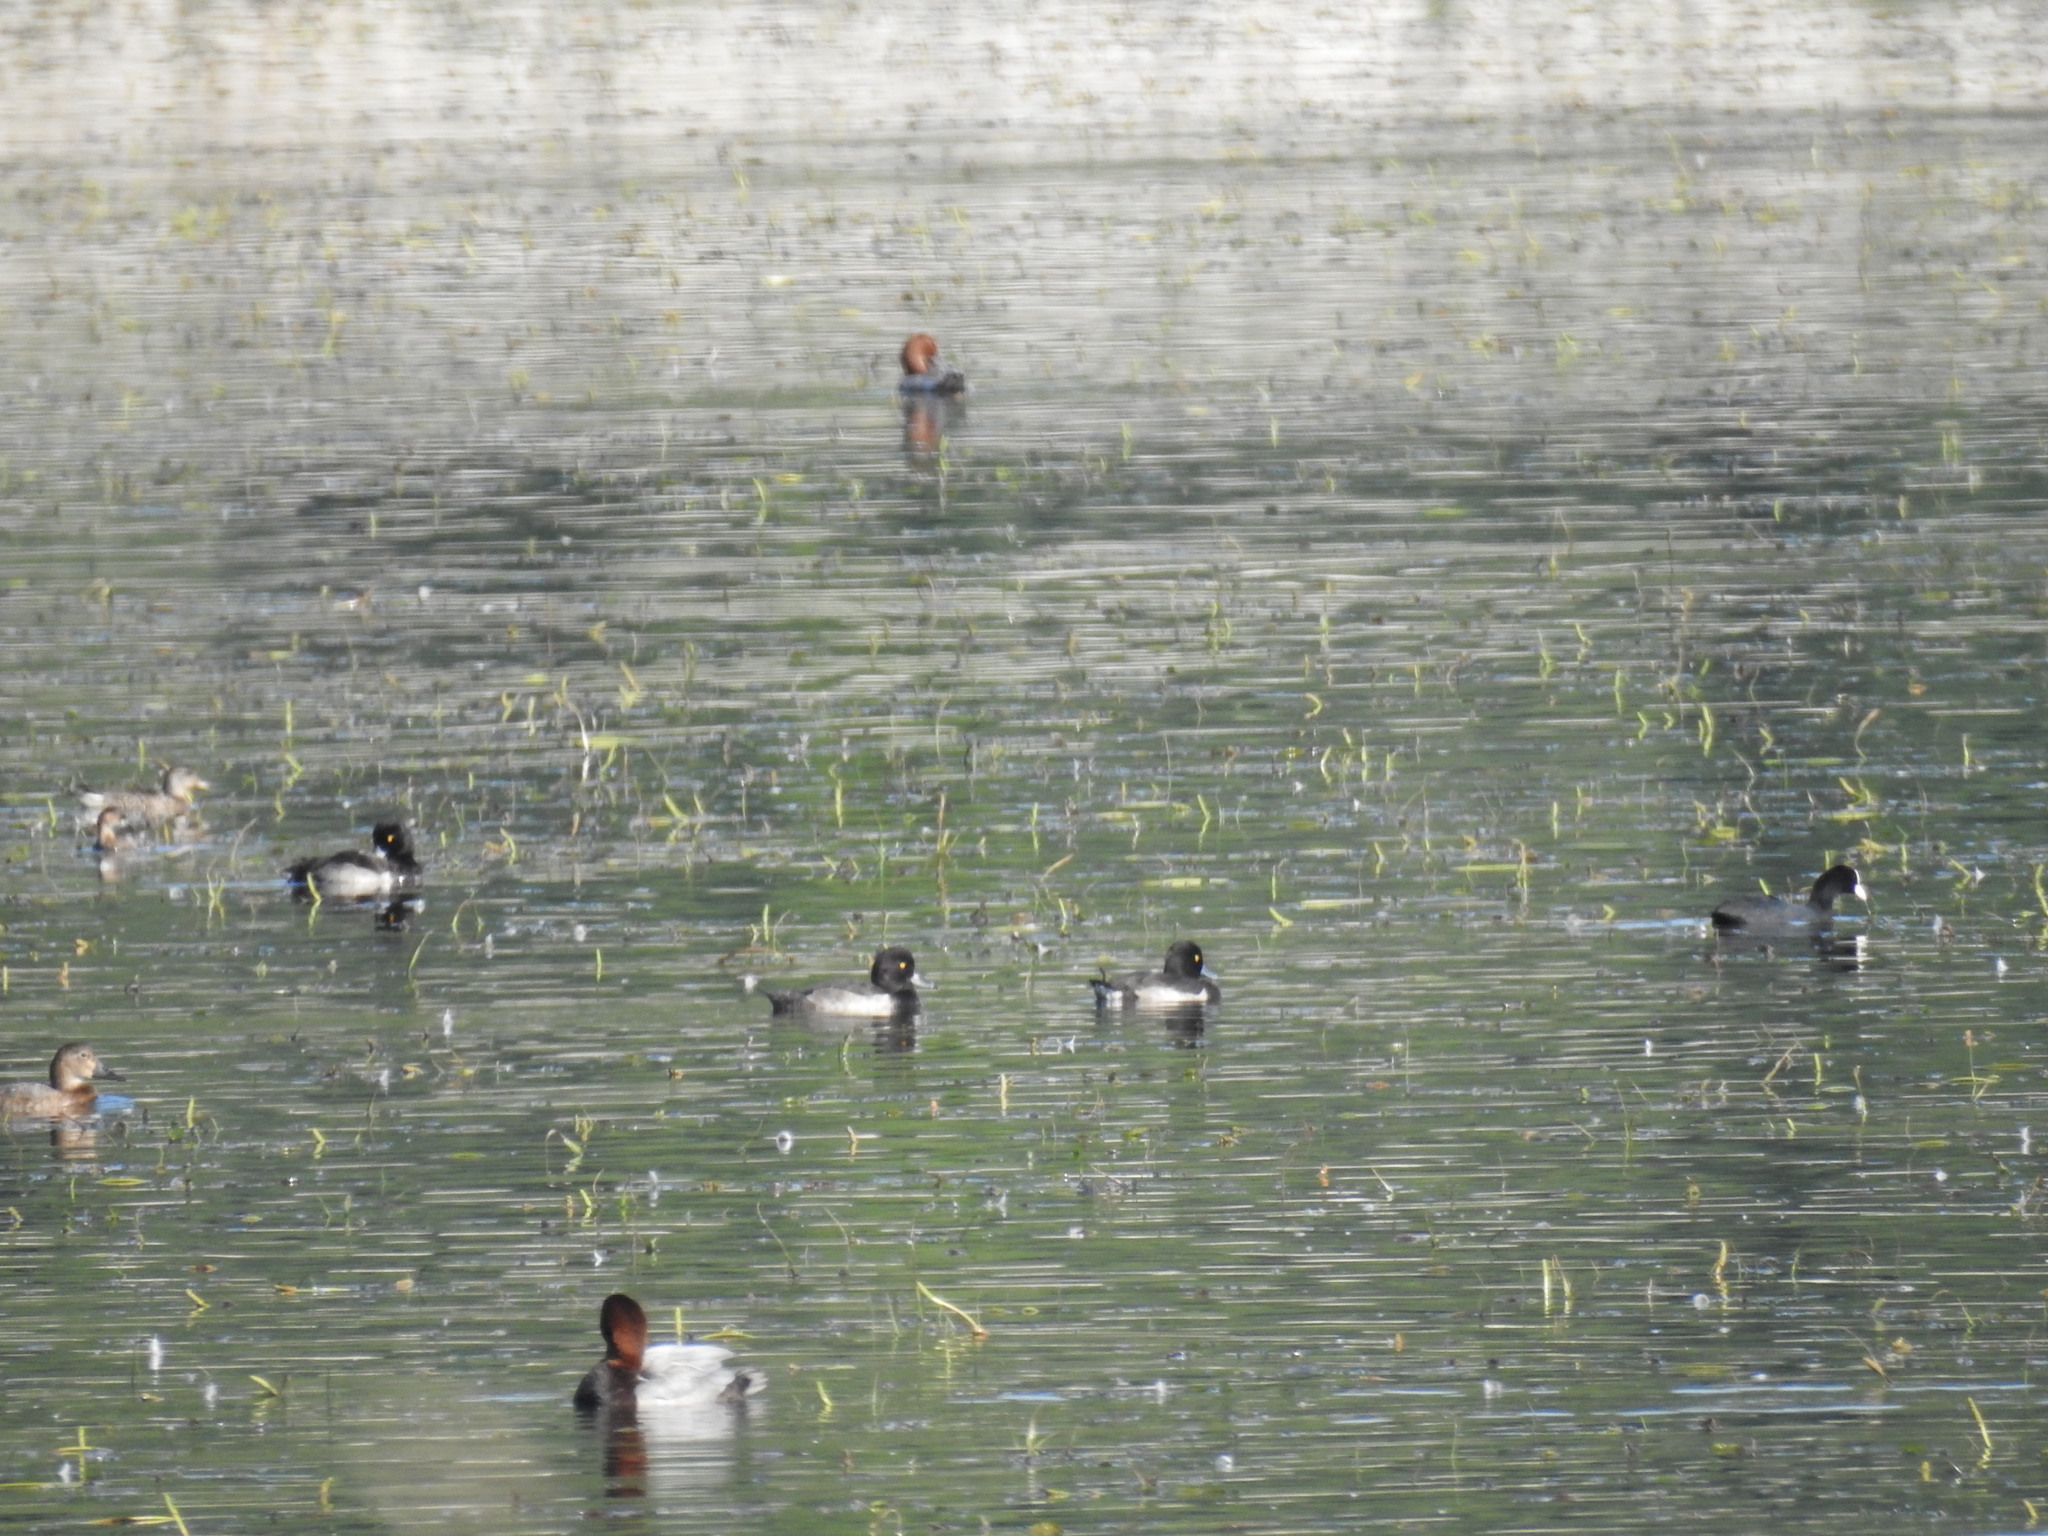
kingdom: Animalia
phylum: Chordata
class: Aves
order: Anseriformes
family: Anatidae
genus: Aythya
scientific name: Aythya fuligula
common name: Tufted duck
